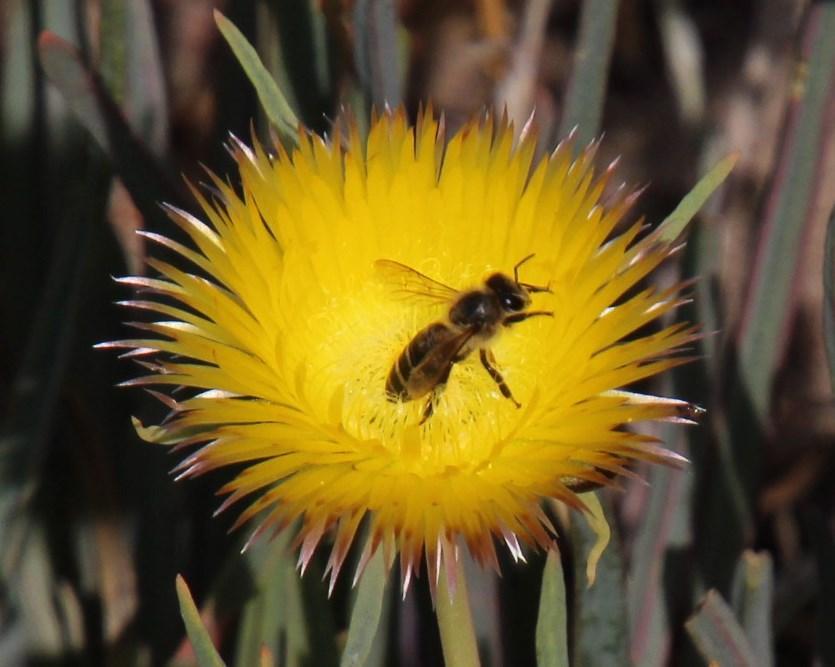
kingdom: Animalia
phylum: Arthropoda
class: Insecta
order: Hymenoptera
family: Apidae
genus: Apis
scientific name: Apis mellifera
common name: Honey bee
